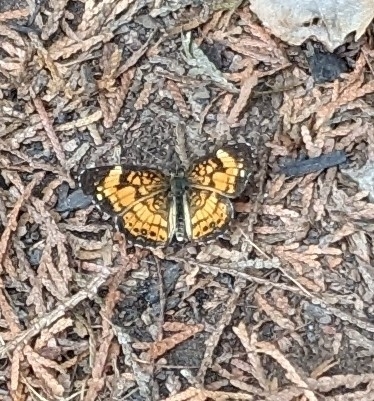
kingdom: Animalia
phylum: Arthropoda
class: Insecta
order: Lepidoptera
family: Nymphalidae
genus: Chlosyne
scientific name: Chlosyne nycteis
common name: Silvery checkerspot
